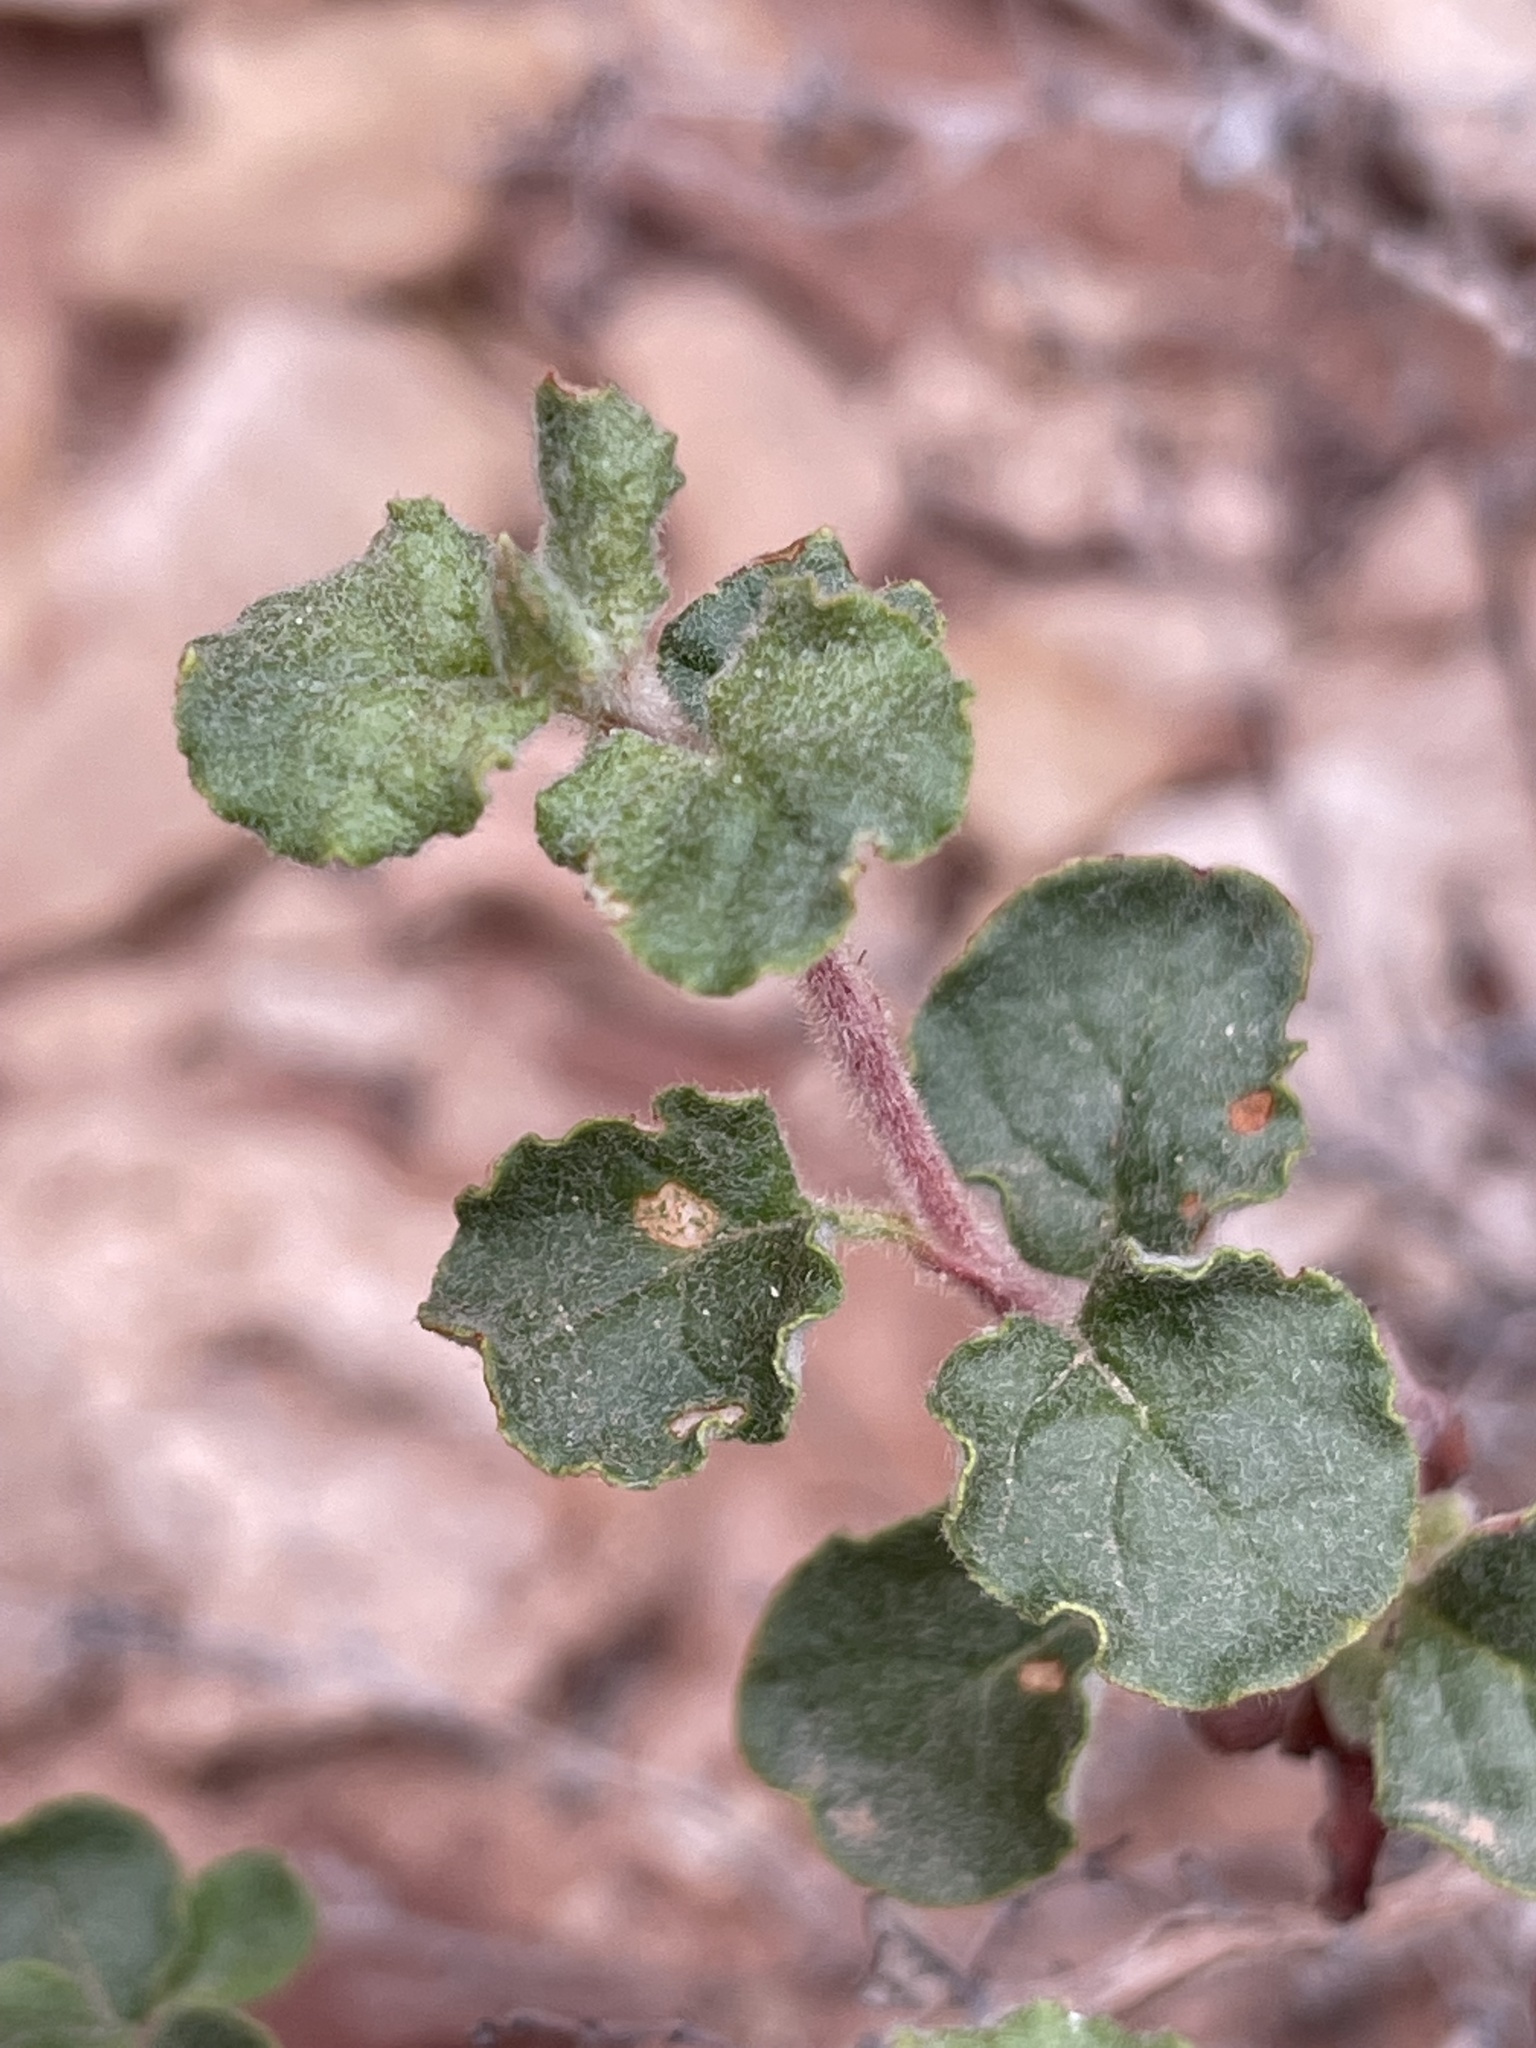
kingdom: Plantae
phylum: Tracheophyta
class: Magnoliopsida
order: Caryophyllales
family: Polygonaceae
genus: Eriogonum
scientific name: Eriogonum corymbosum
